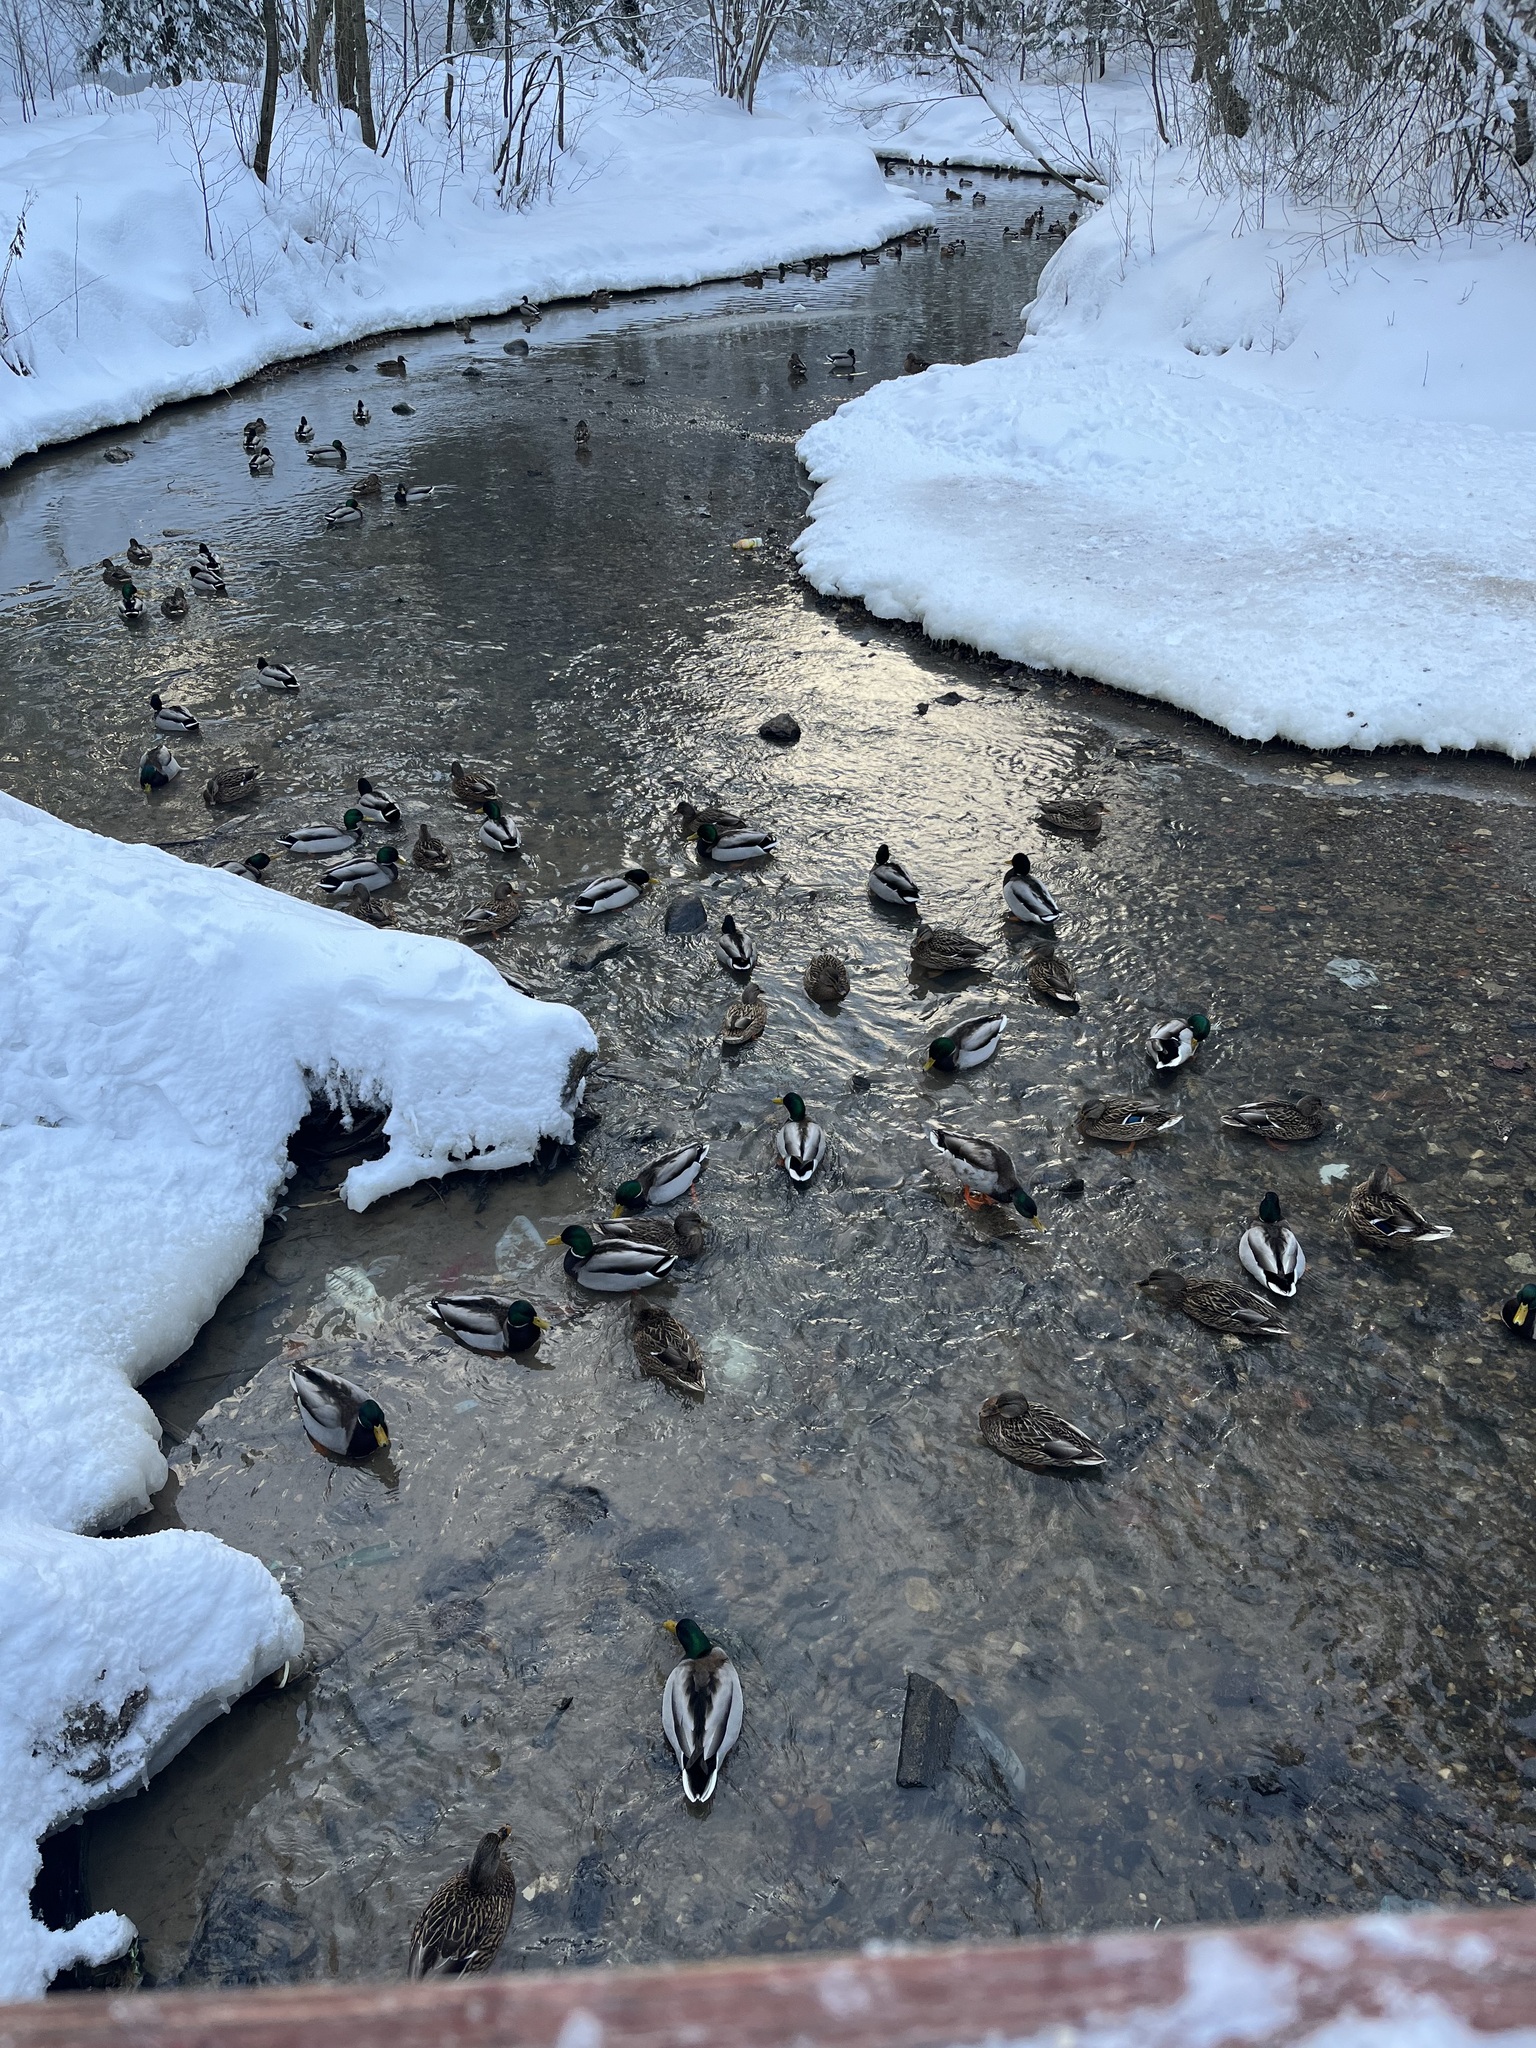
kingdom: Animalia
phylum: Chordata
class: Aves
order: Anseriformes
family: Anatidae
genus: Anas
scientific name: Anas platyrhynchos
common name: Mallard
